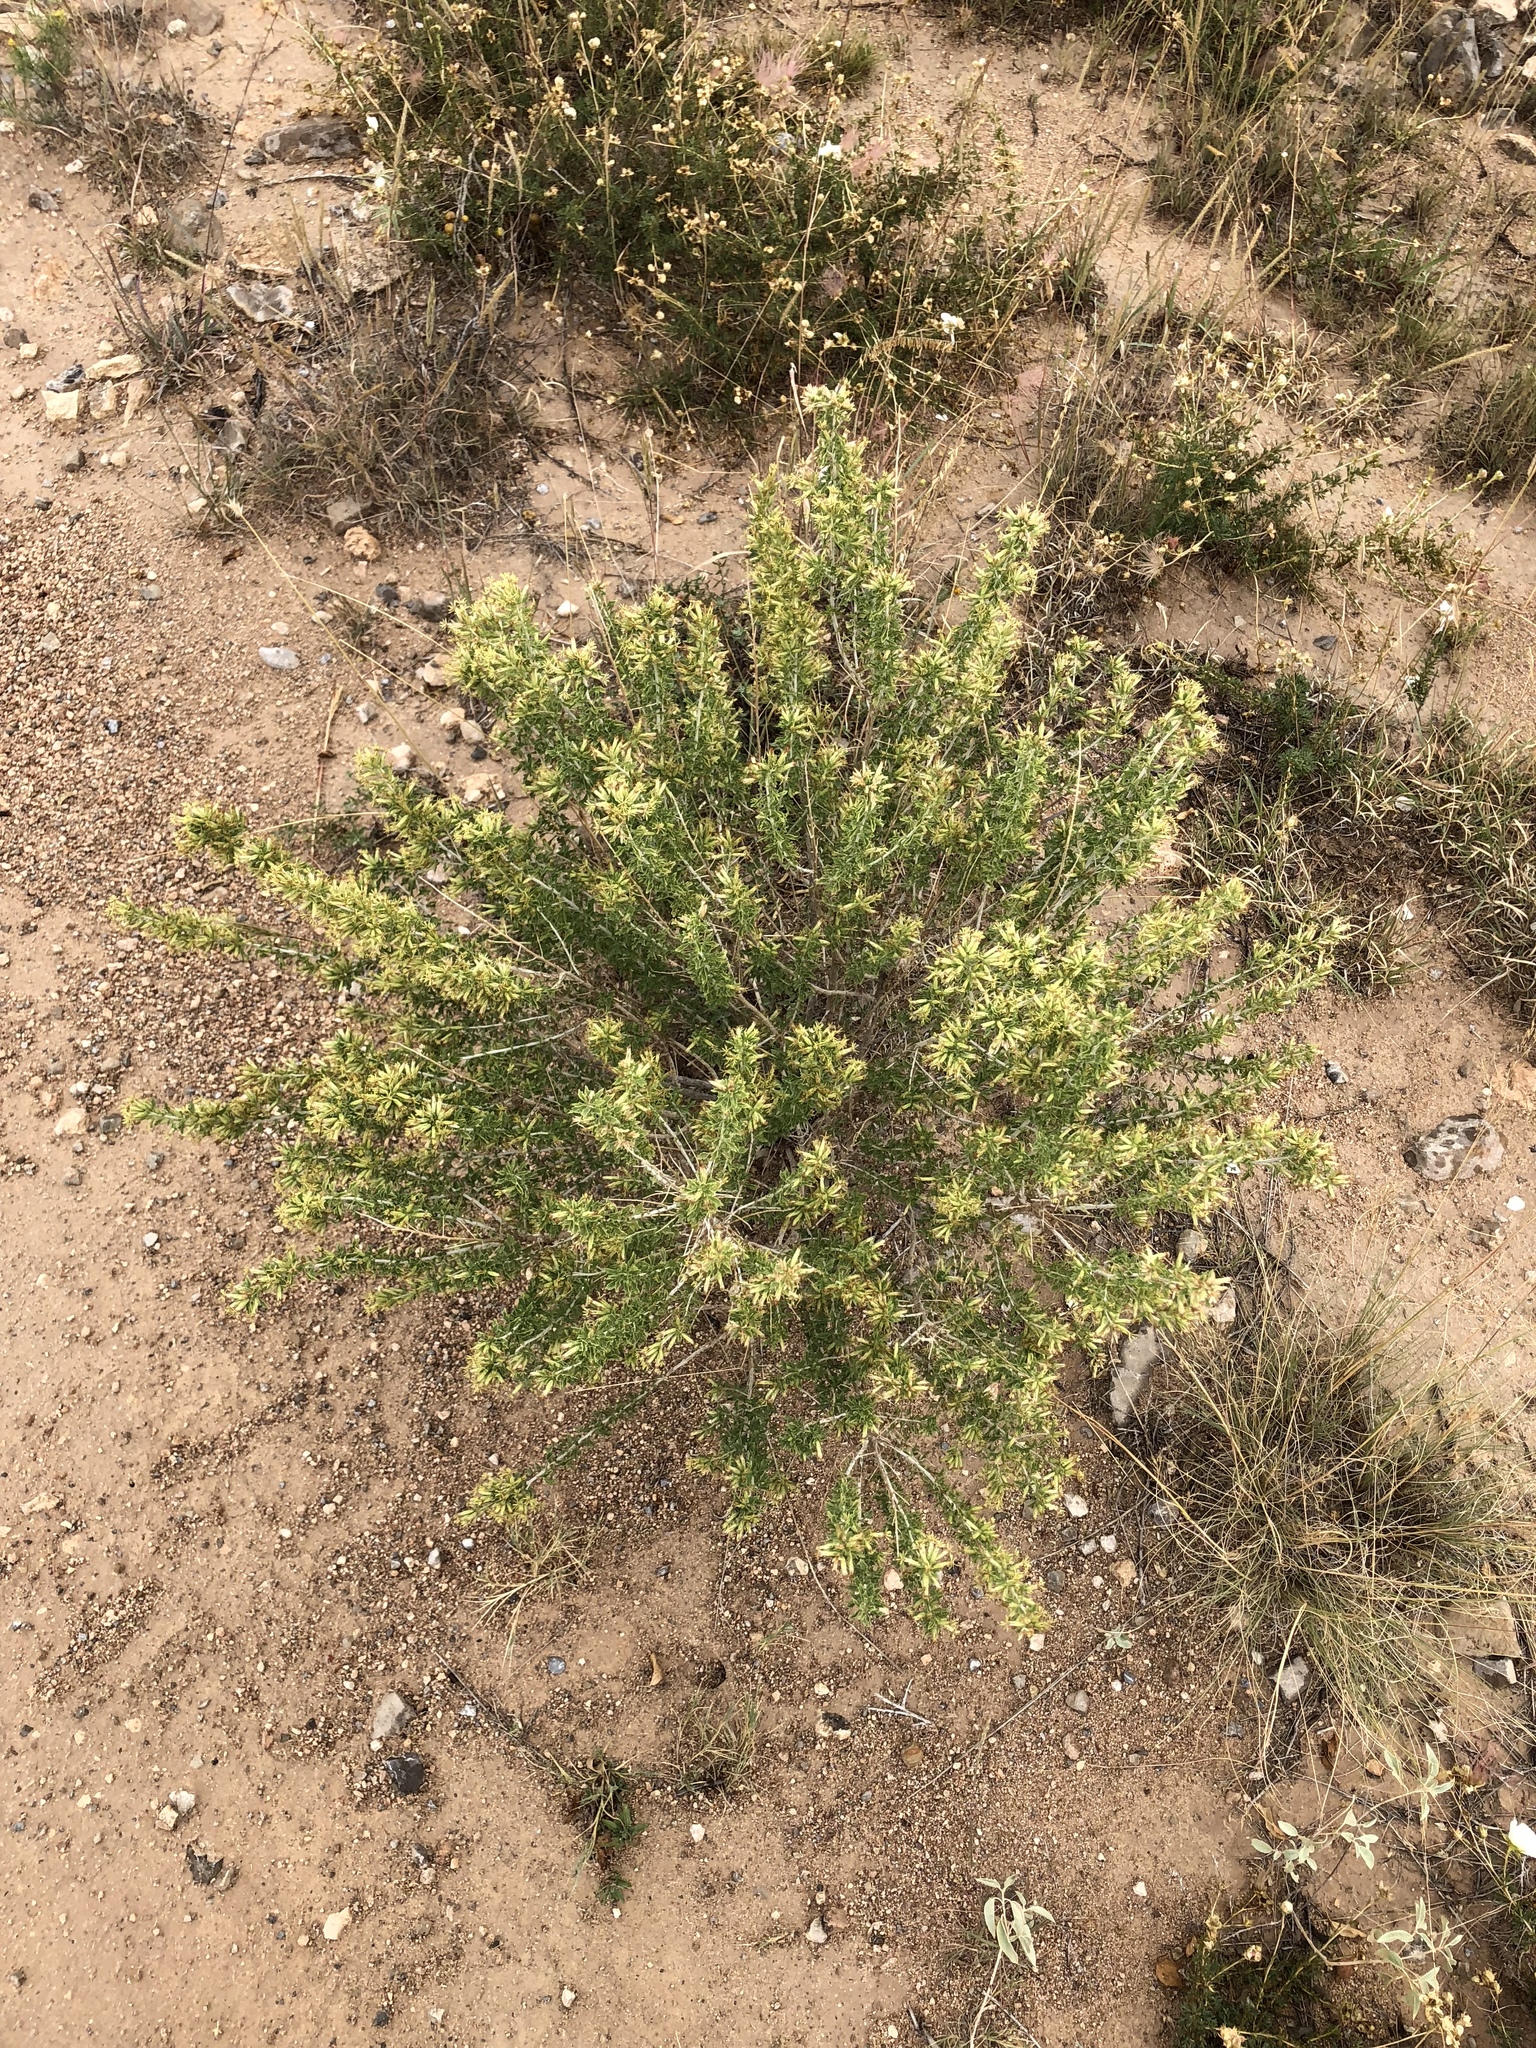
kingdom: Plantae
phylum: Tracheophyta
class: Magnoliopsida
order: Asterales
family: Asteraceae
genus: Baccharis
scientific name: Baccharis pteronioides
